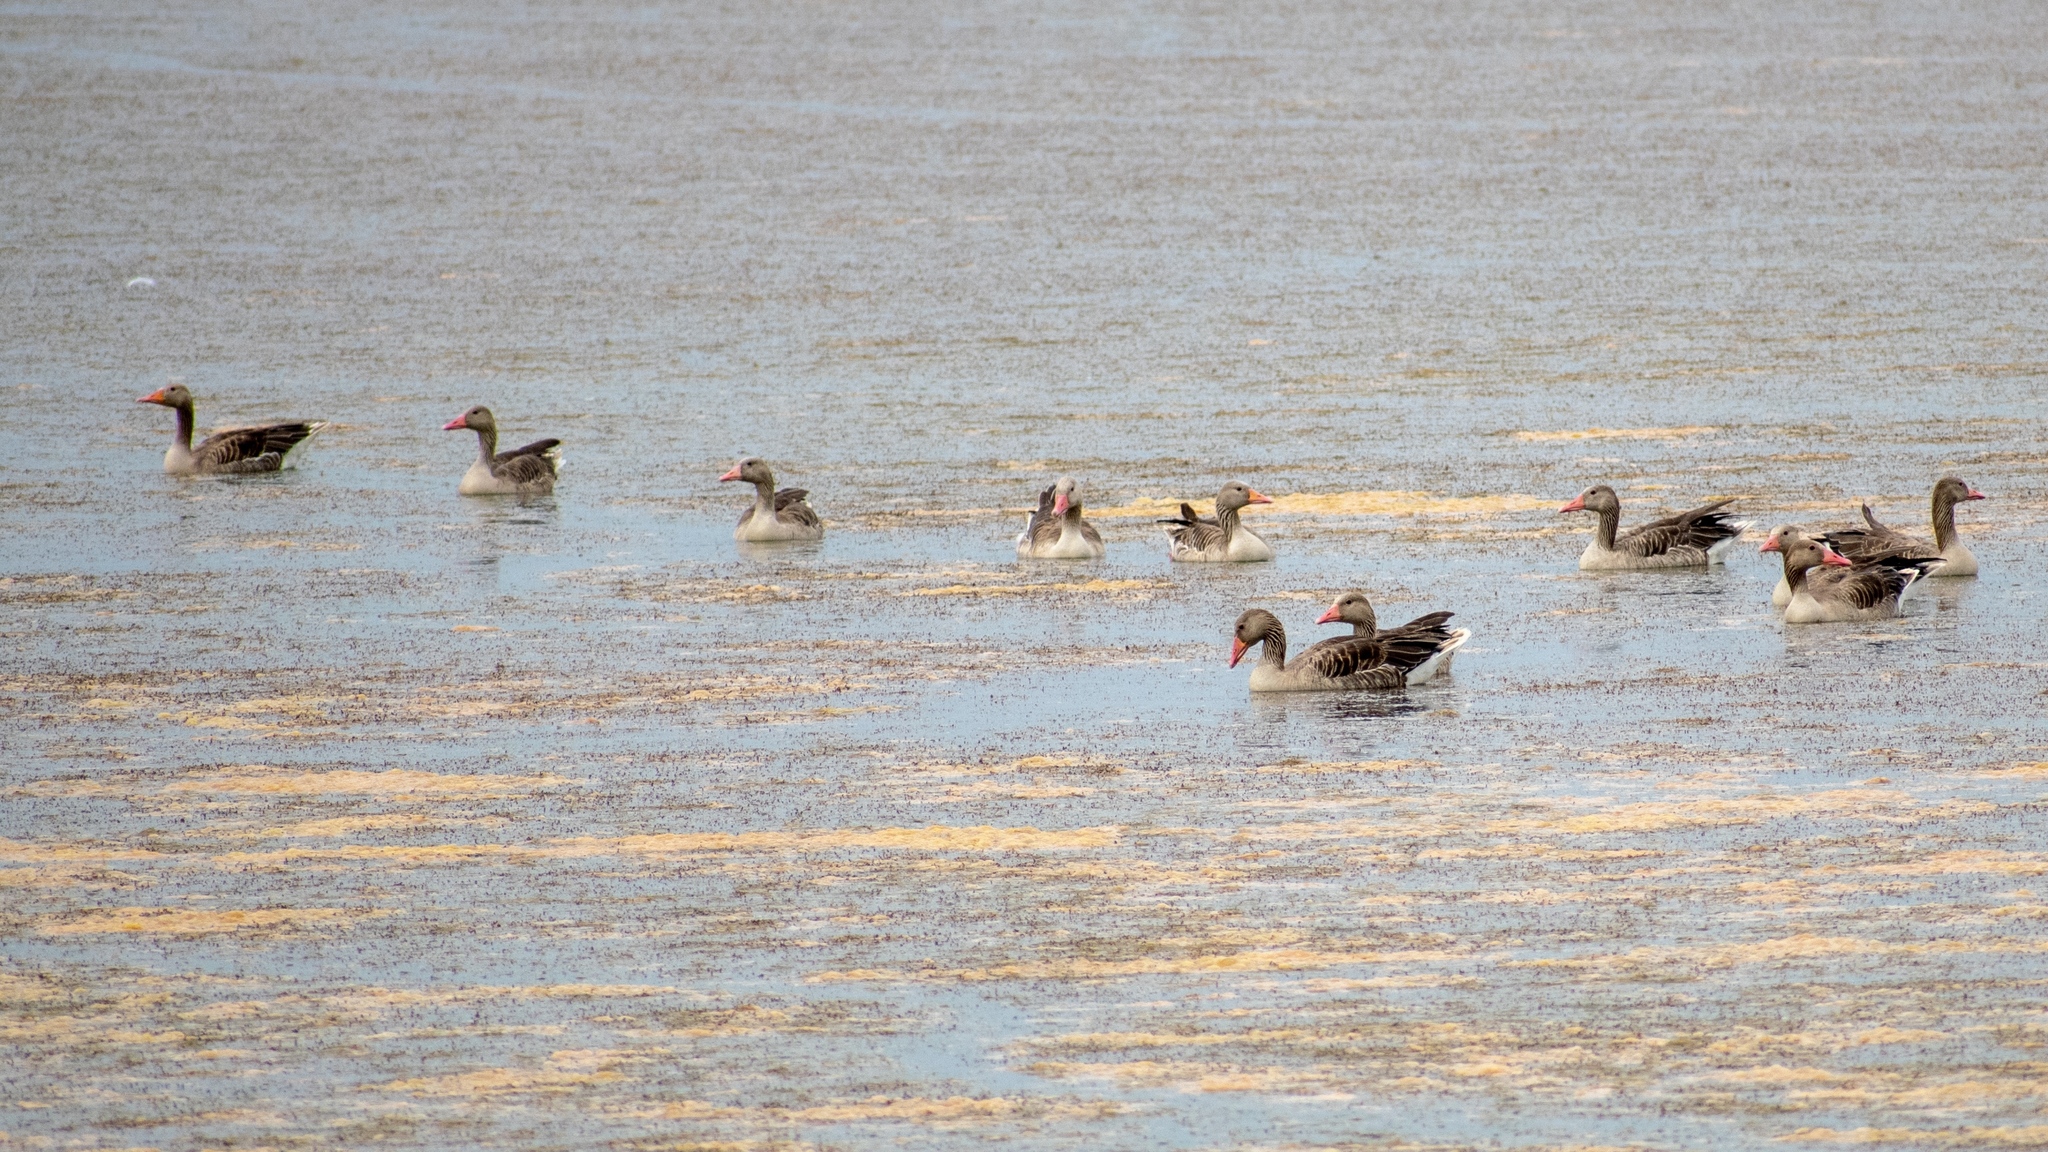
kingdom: Animalia
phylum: Chordata
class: Aves
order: Anseriformes
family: Anatidae
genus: Anser
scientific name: Anser anser
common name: Greylag goose
